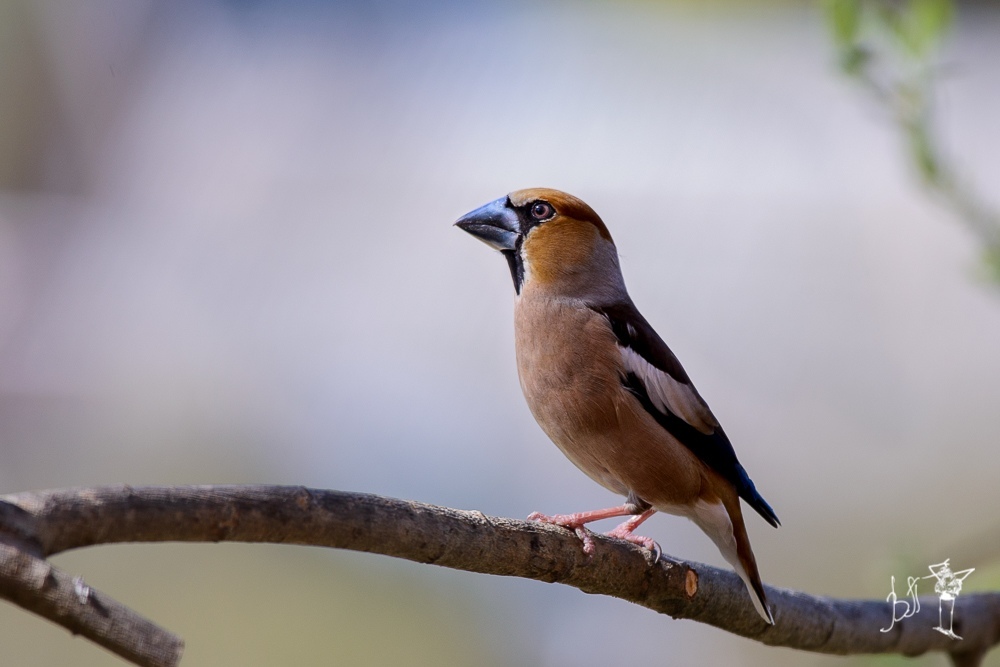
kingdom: Animalia
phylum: Chordata
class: Aves
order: Passeriformes
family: Fringillidae
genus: Coccothraustes
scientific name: Coccothraustes coccothraustes
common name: Hawfinch
